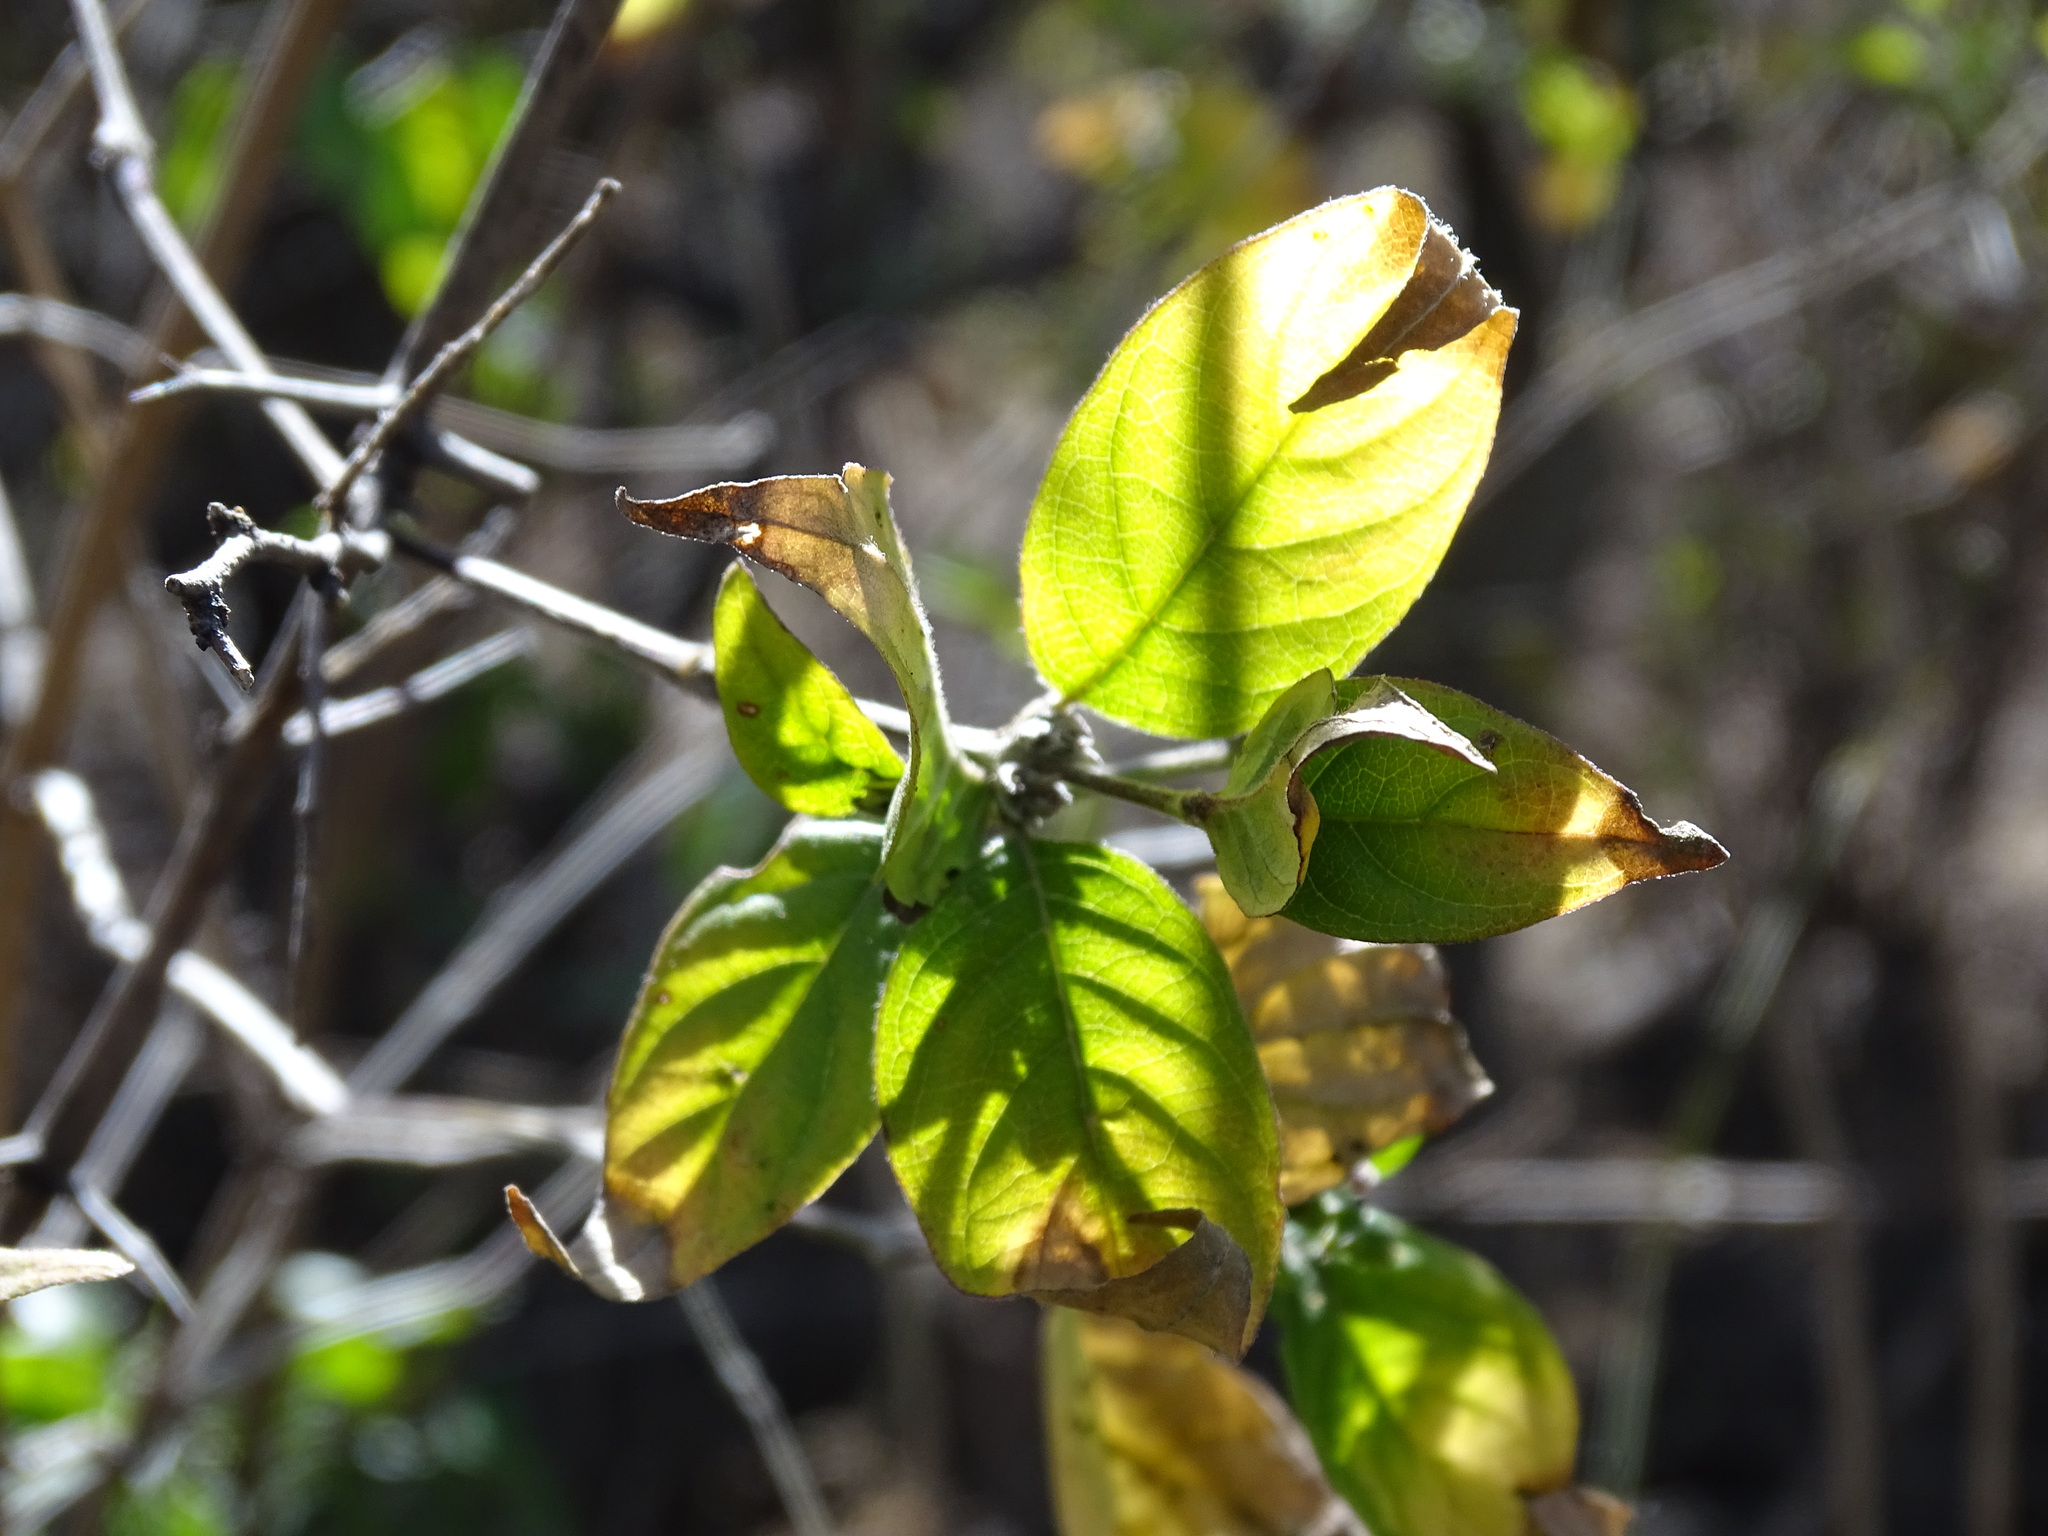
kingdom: Plantae
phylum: Tracheophyta
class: Magnoliopsida
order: Lamiales
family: Acanthaceae
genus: Dianthera
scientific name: Dianthera candicans
